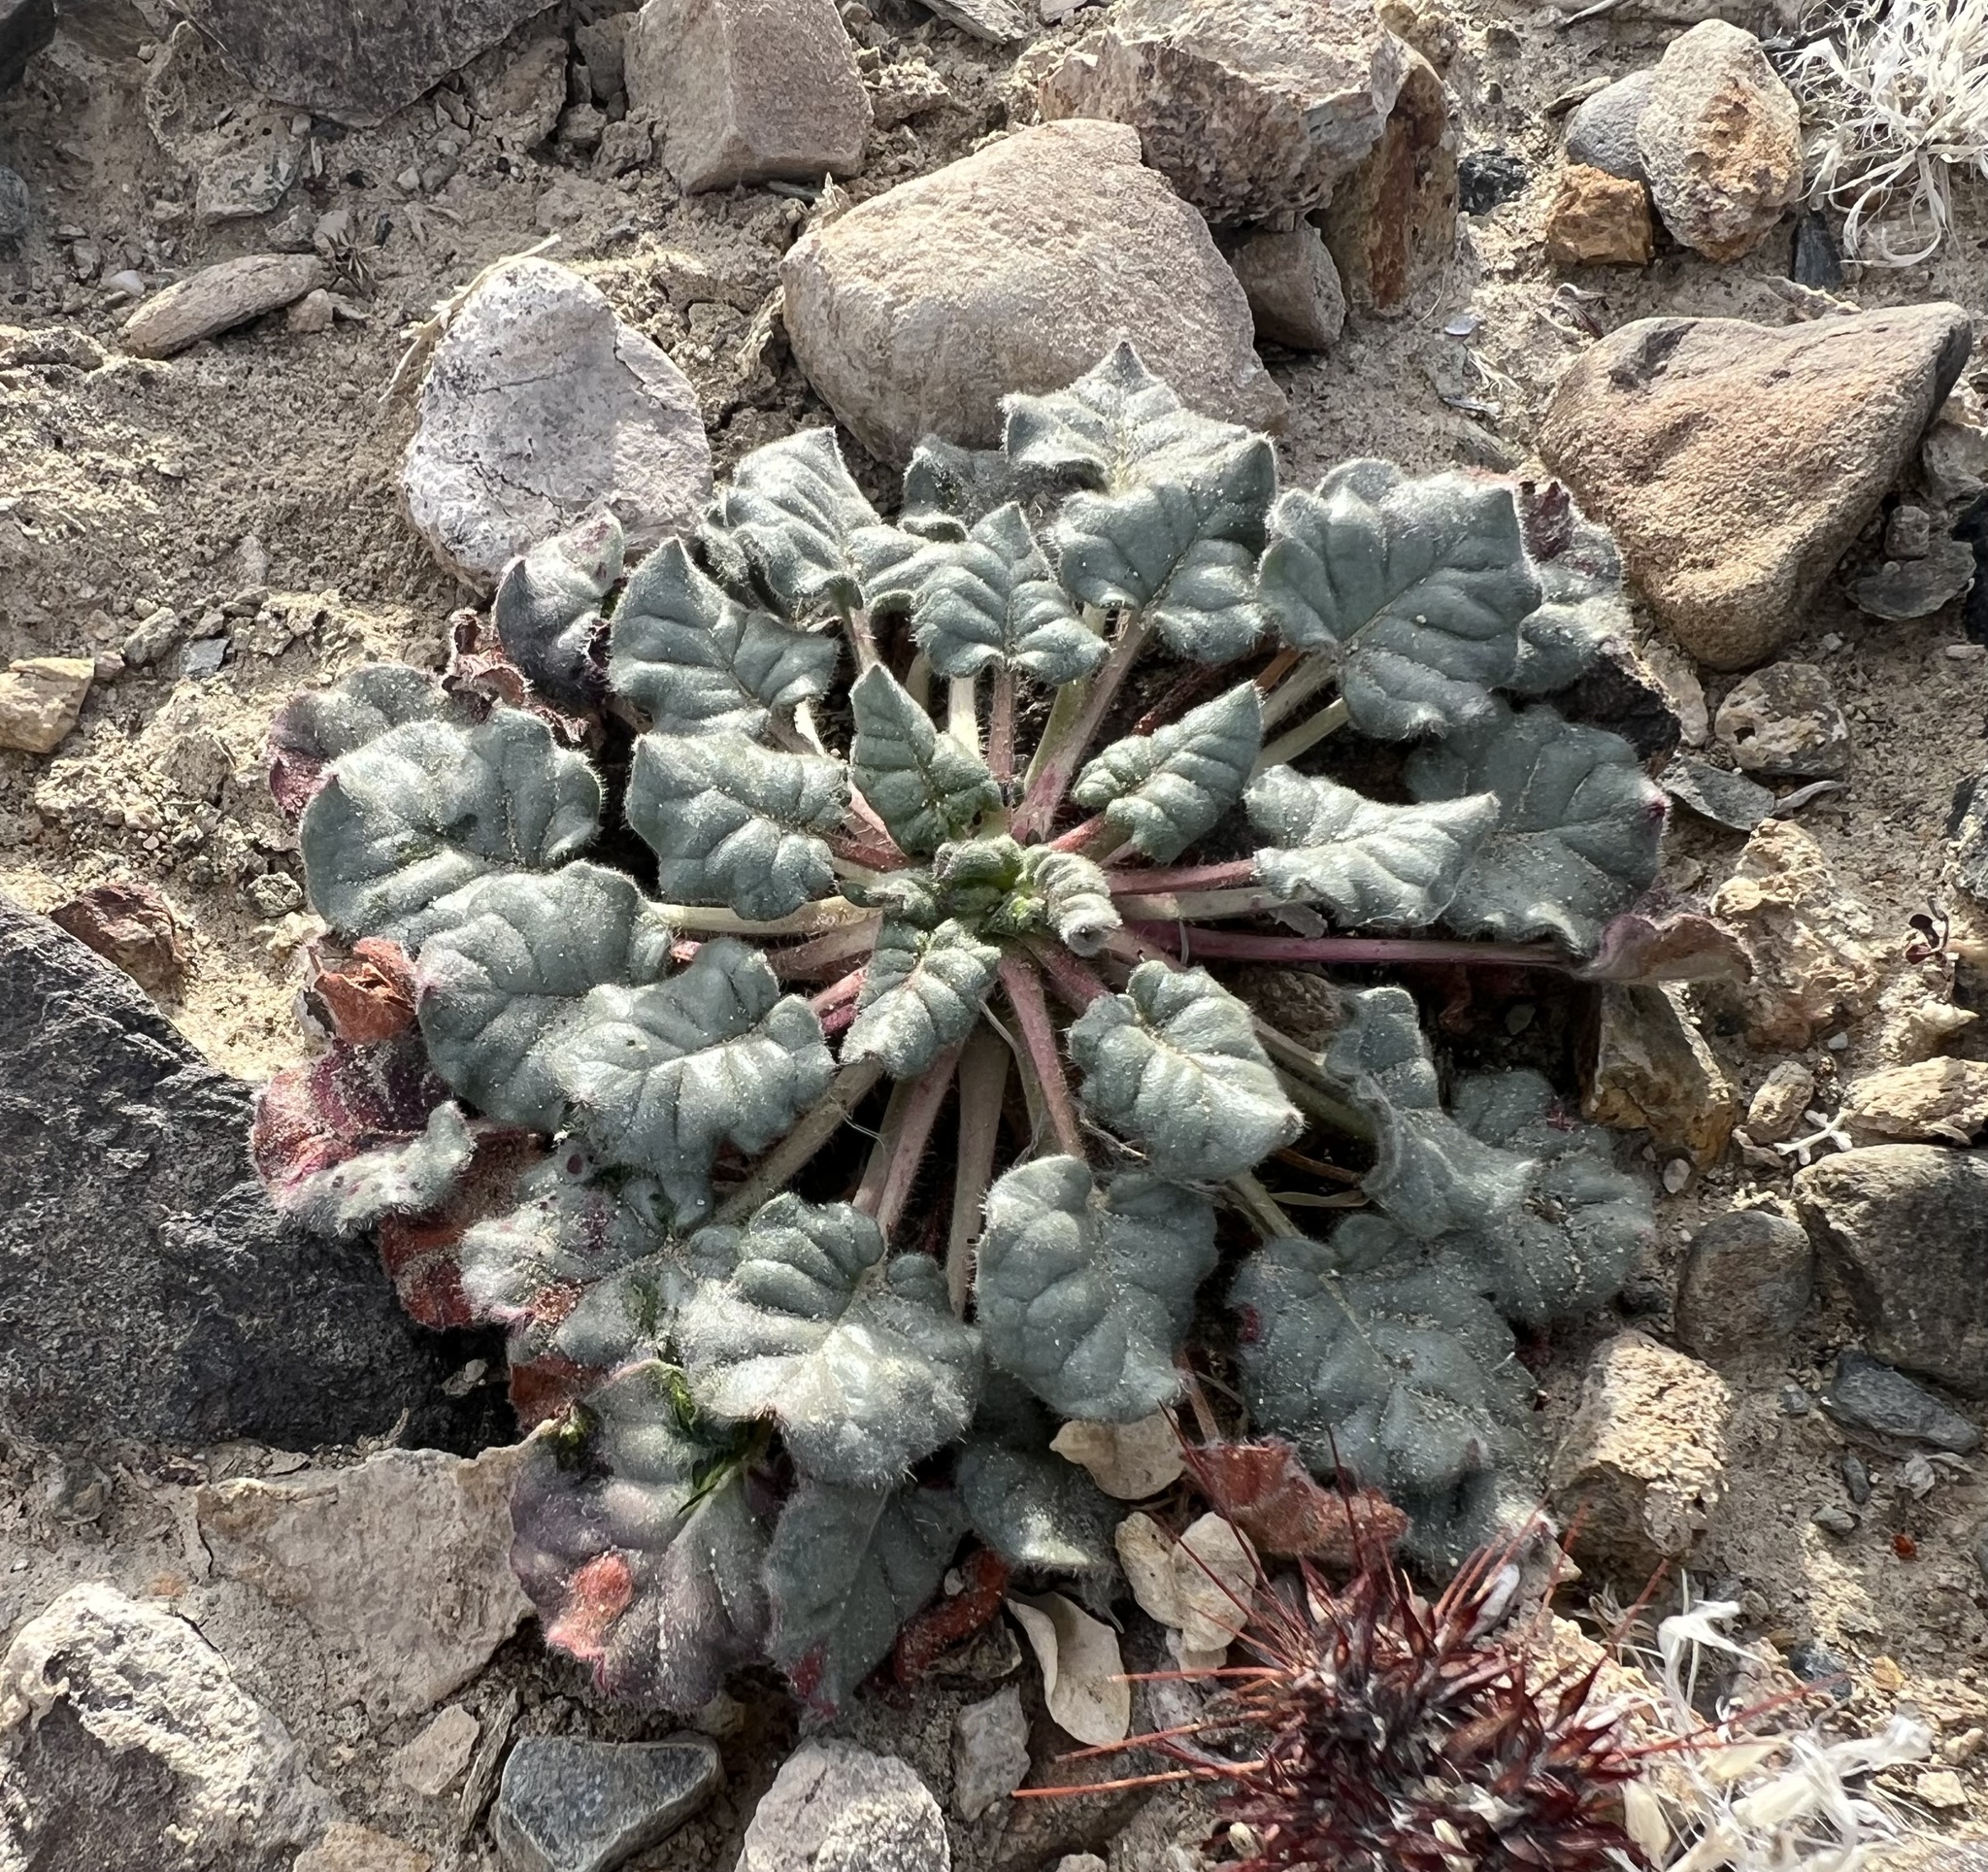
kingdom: Plantae
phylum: Tracheophyta
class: Magnoliopsida
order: Caryophyllales
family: Polygonaceae
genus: Eriogonum
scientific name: Eriogonum inflatum
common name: Desert trumpet
